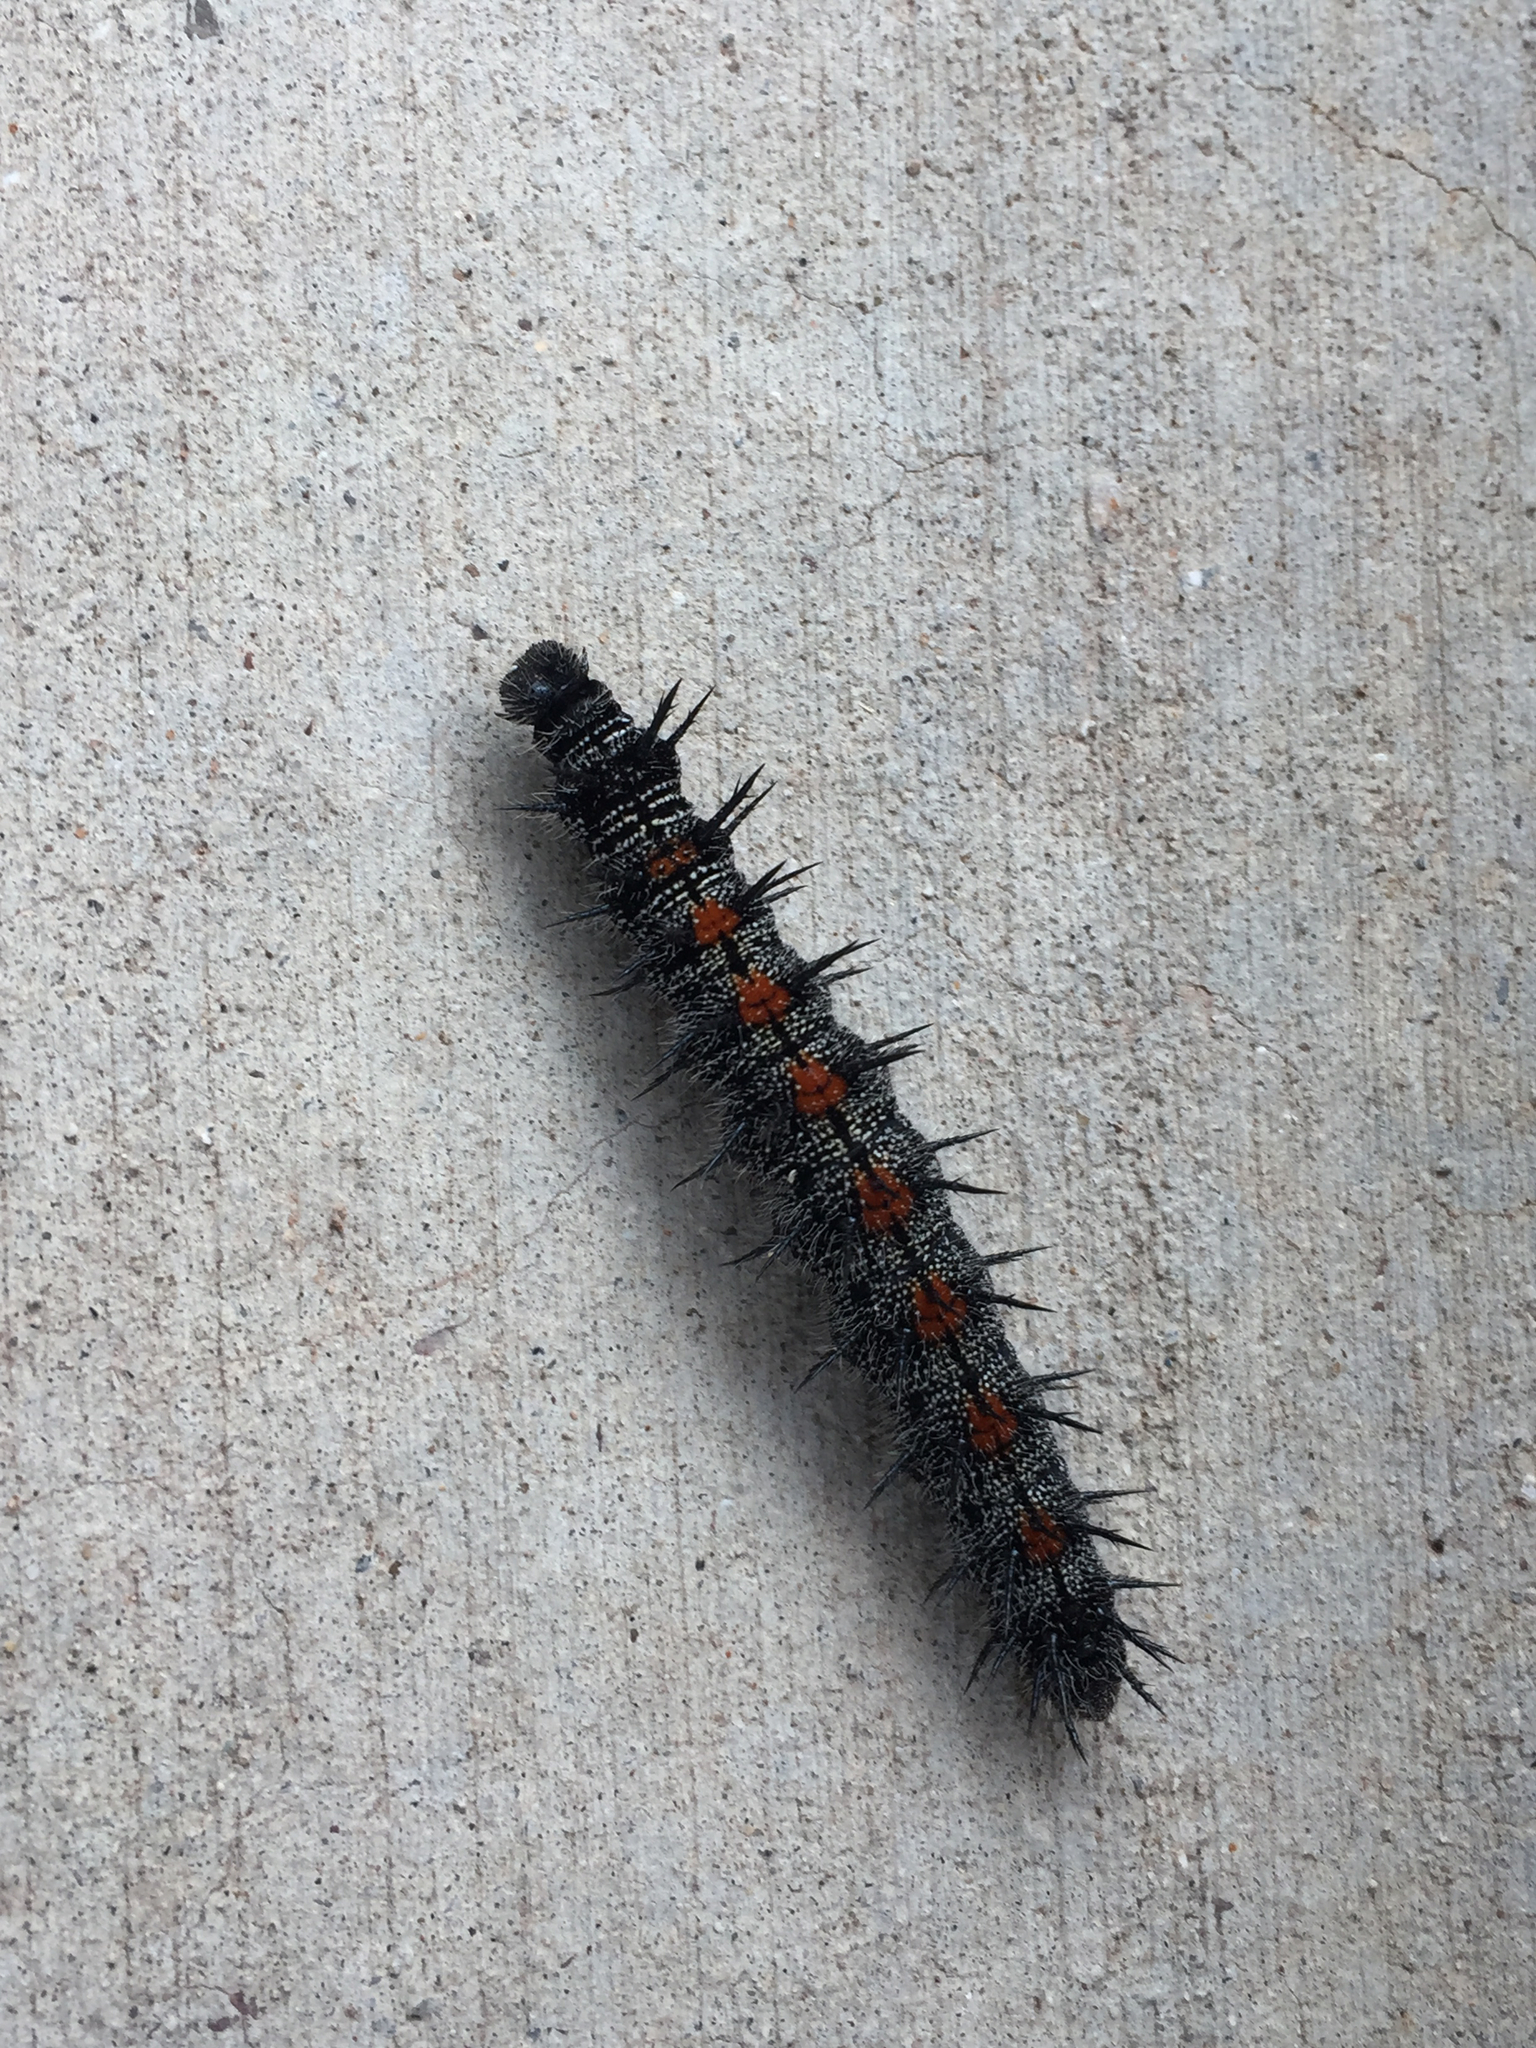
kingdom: Animalia
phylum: Arthropoda
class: Insecta
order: Lepidoptera
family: Nymphalidae
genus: Nymphalis
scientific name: Nymphalis antiopa
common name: Camberwell beauty
